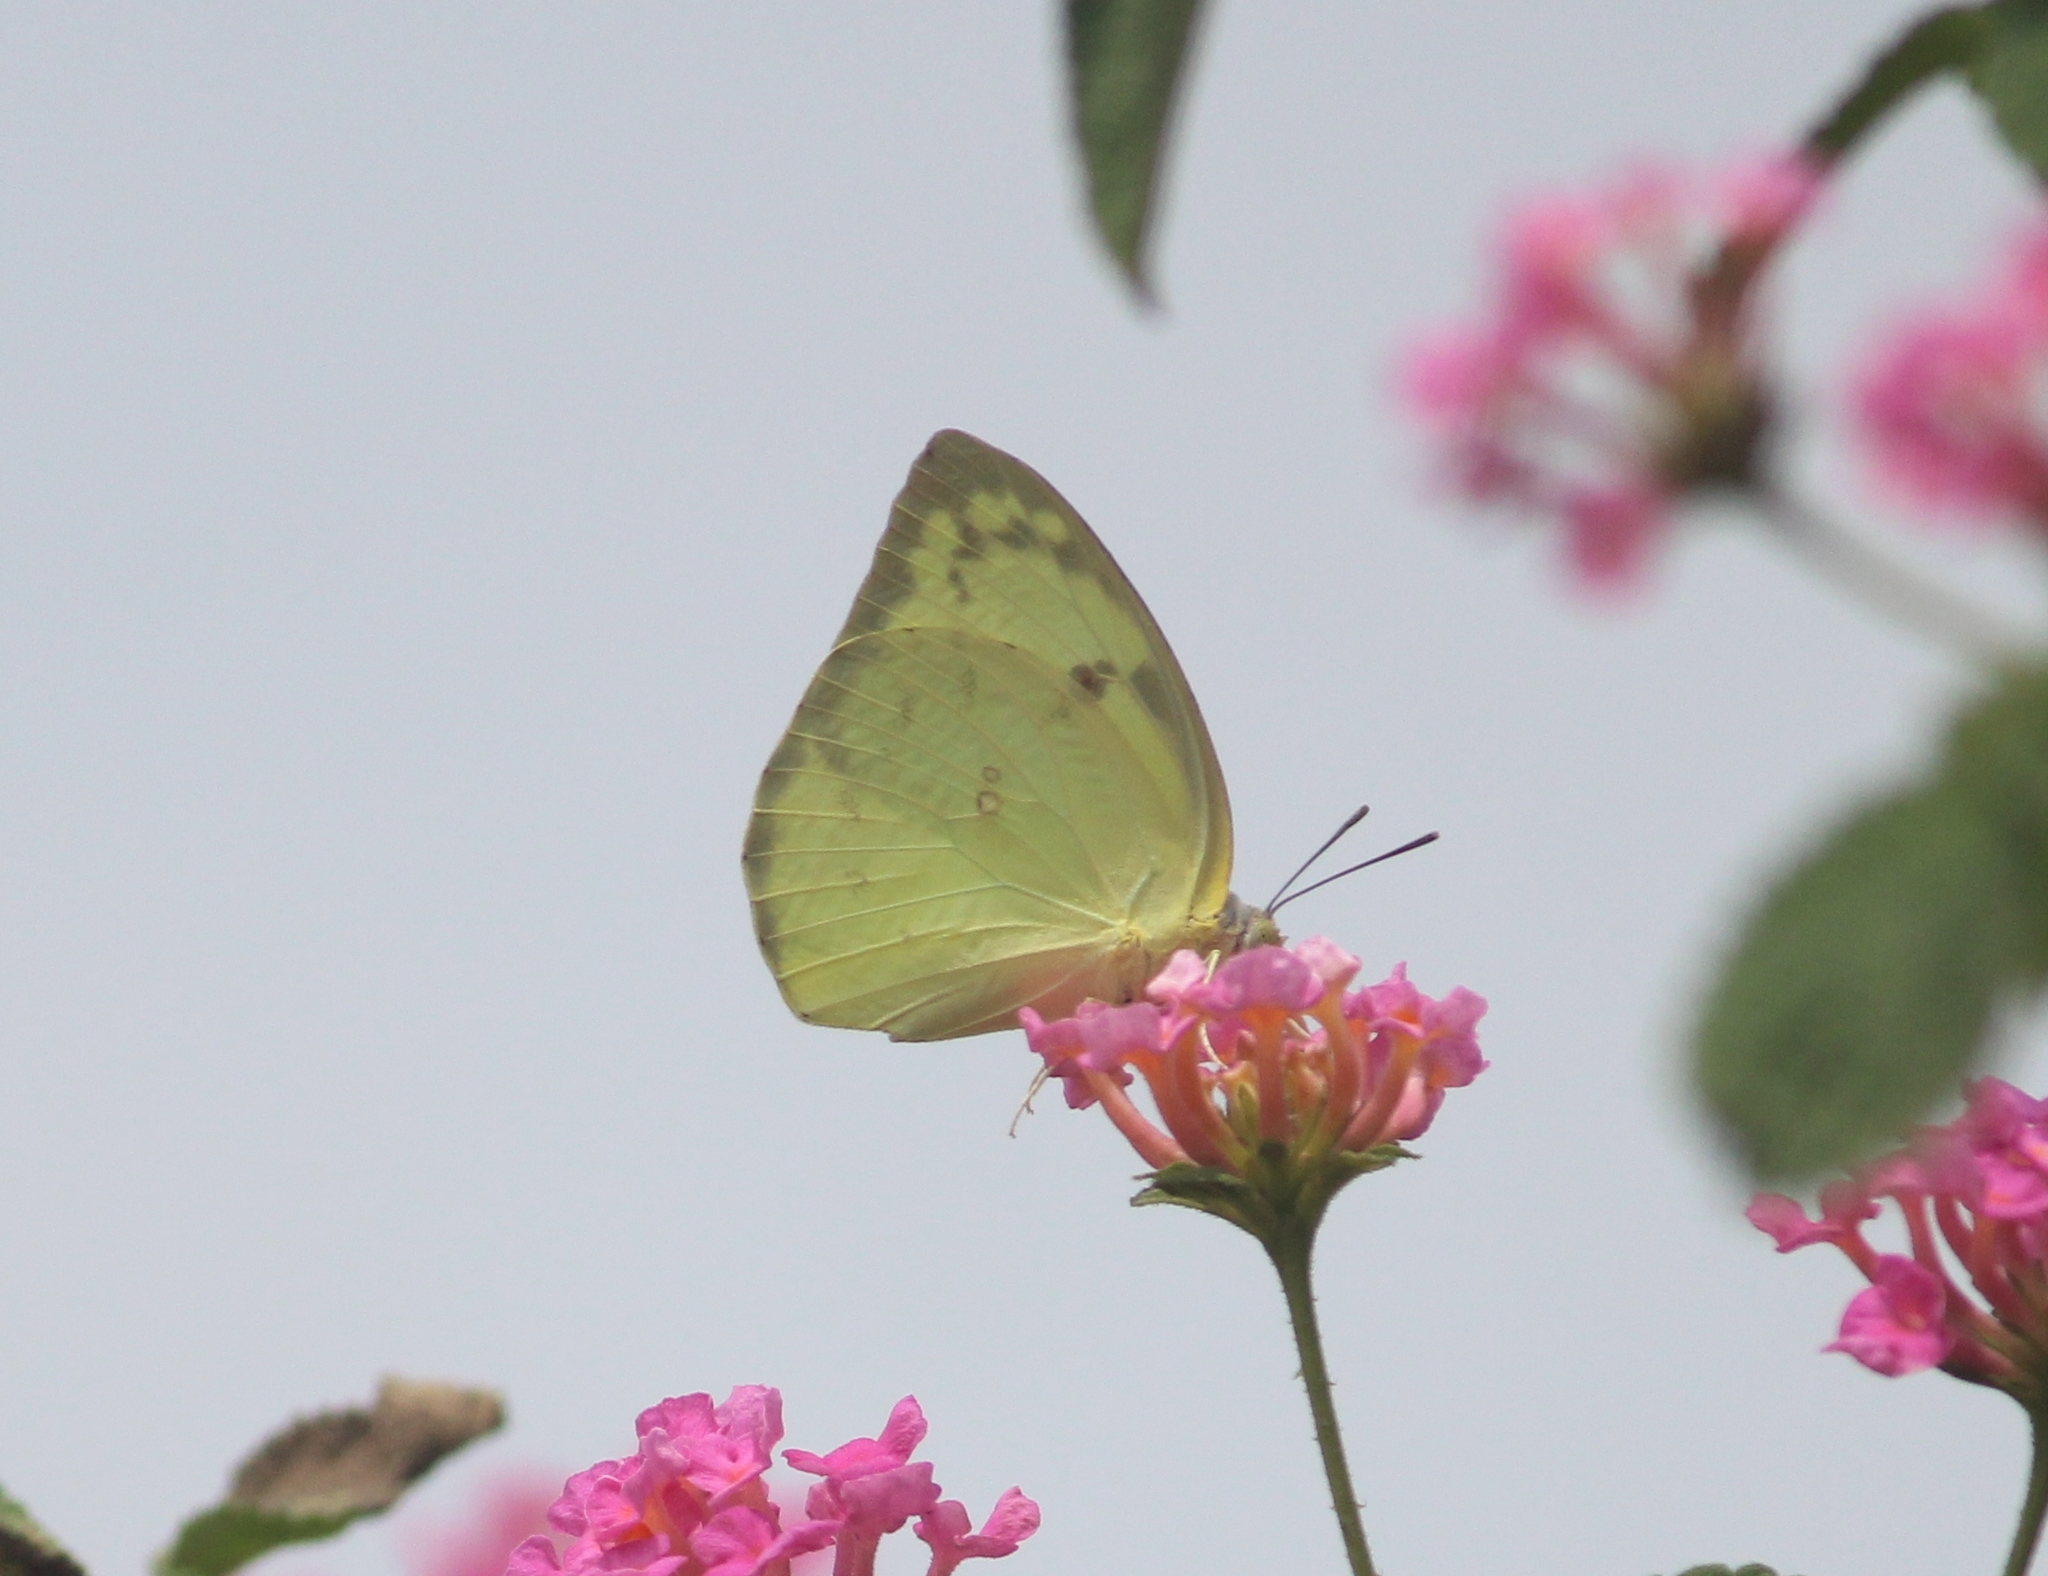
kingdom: Animalia
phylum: Arthropoda
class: Insecta
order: Lepidoptera
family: Pieridae
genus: Catopsilia
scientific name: Catopsilia pomona
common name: Common emigrant
